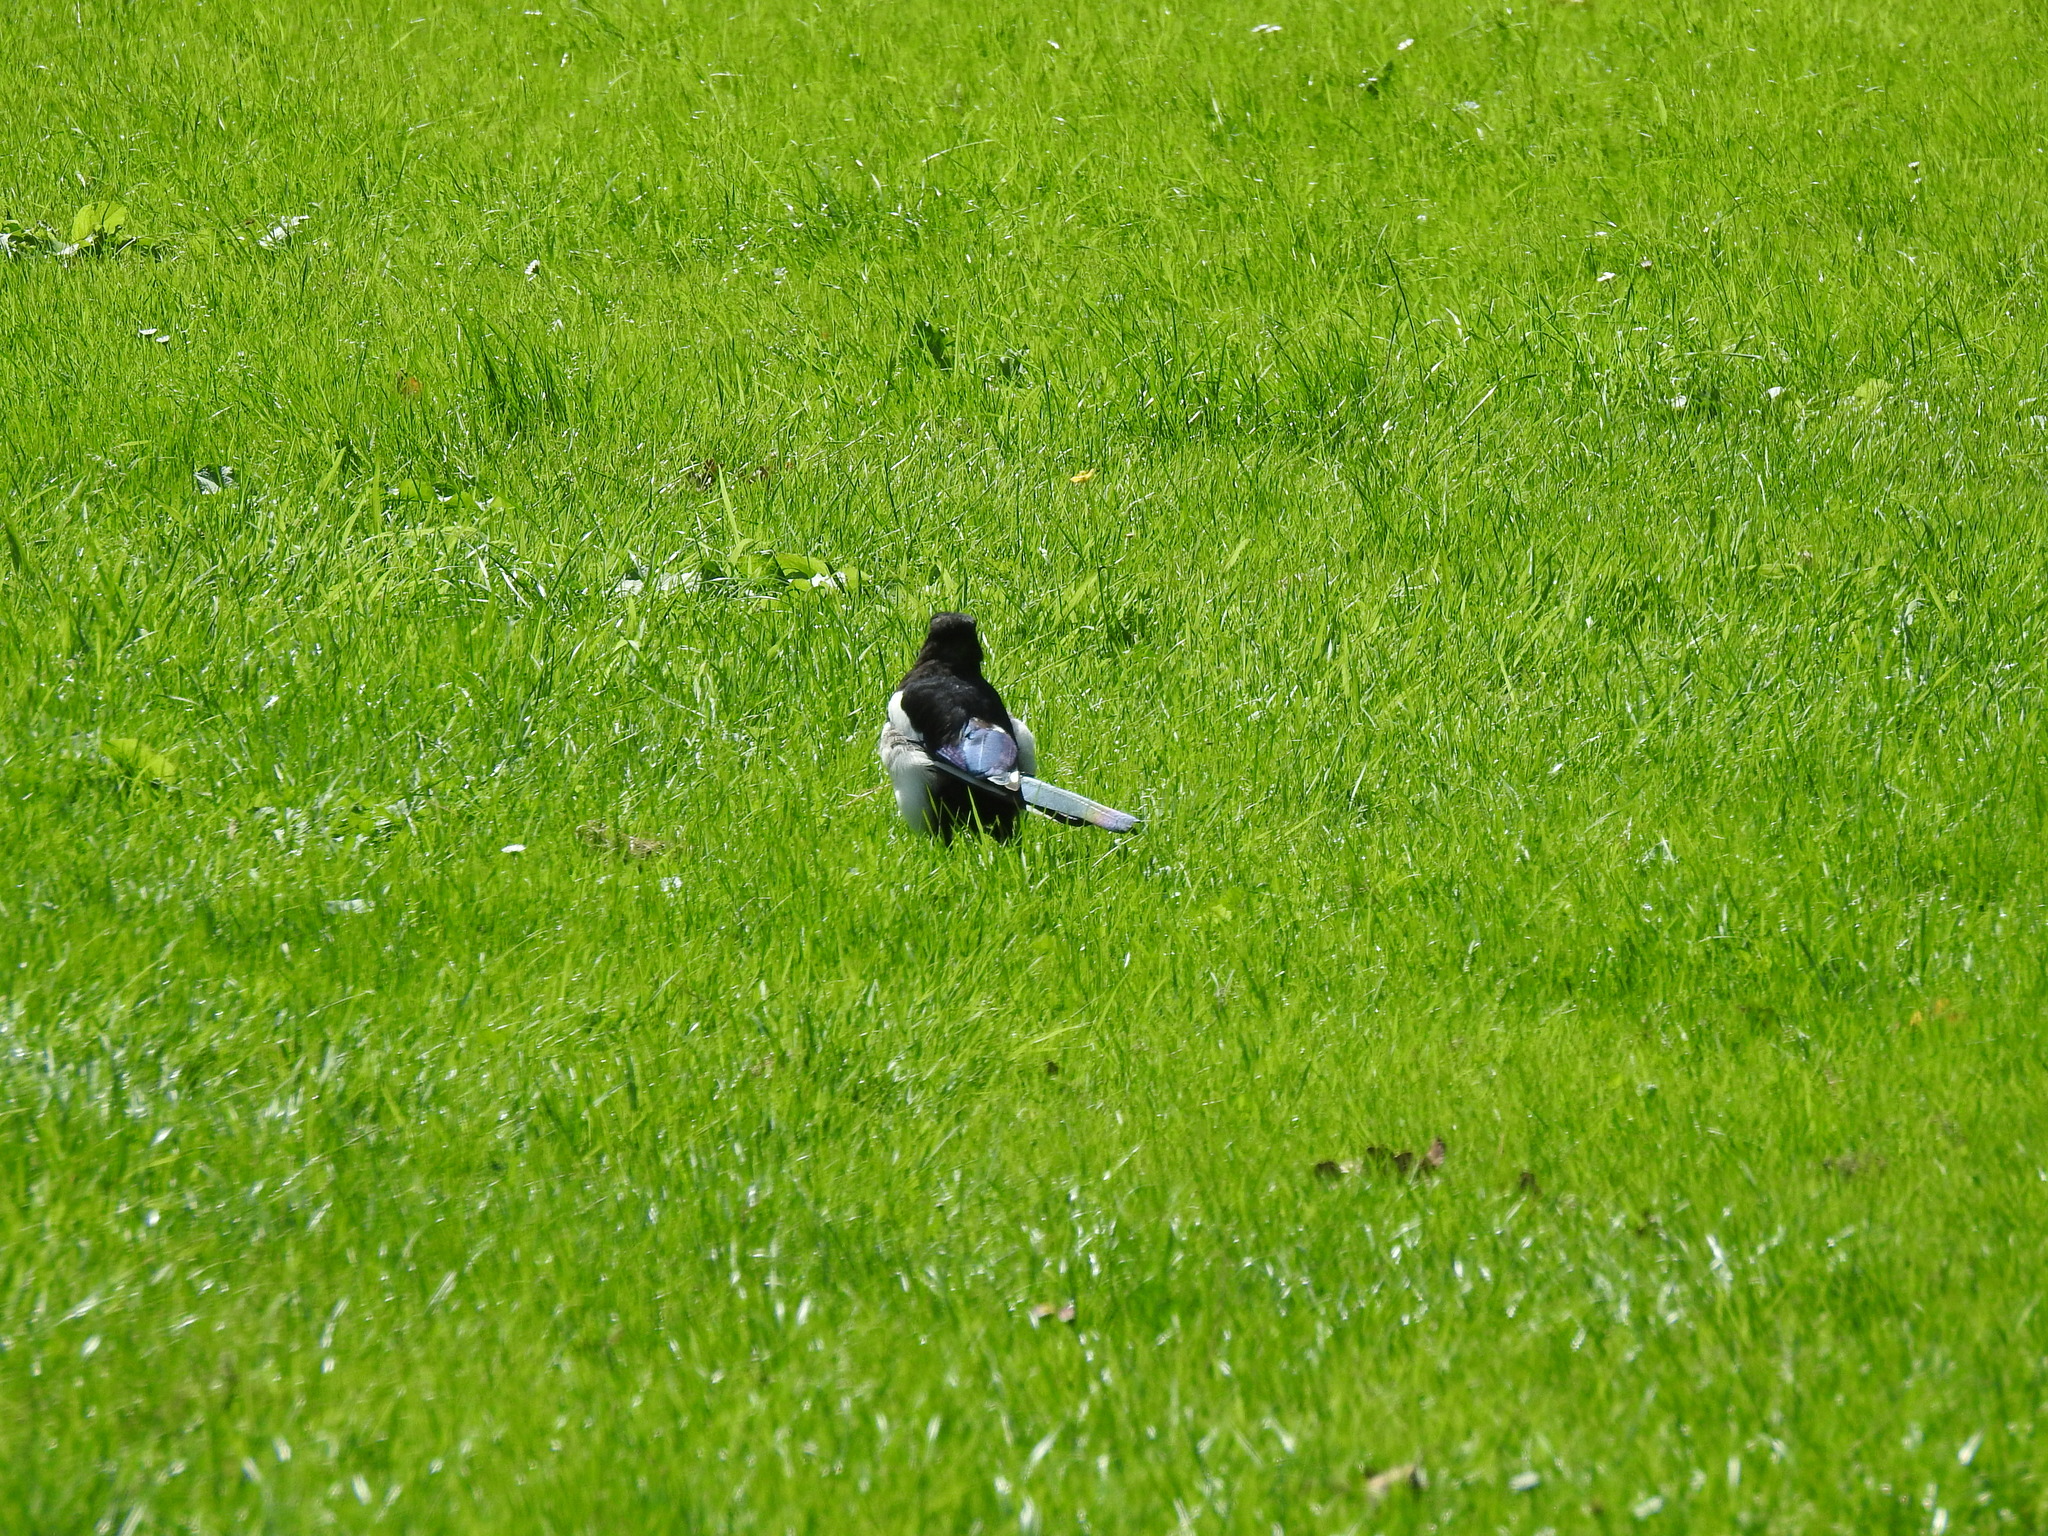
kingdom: Animalia
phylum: Chordata
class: Aves
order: Passeriformes
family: Corvidae
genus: Pica
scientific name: Pica pica
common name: Eurasian magpie
